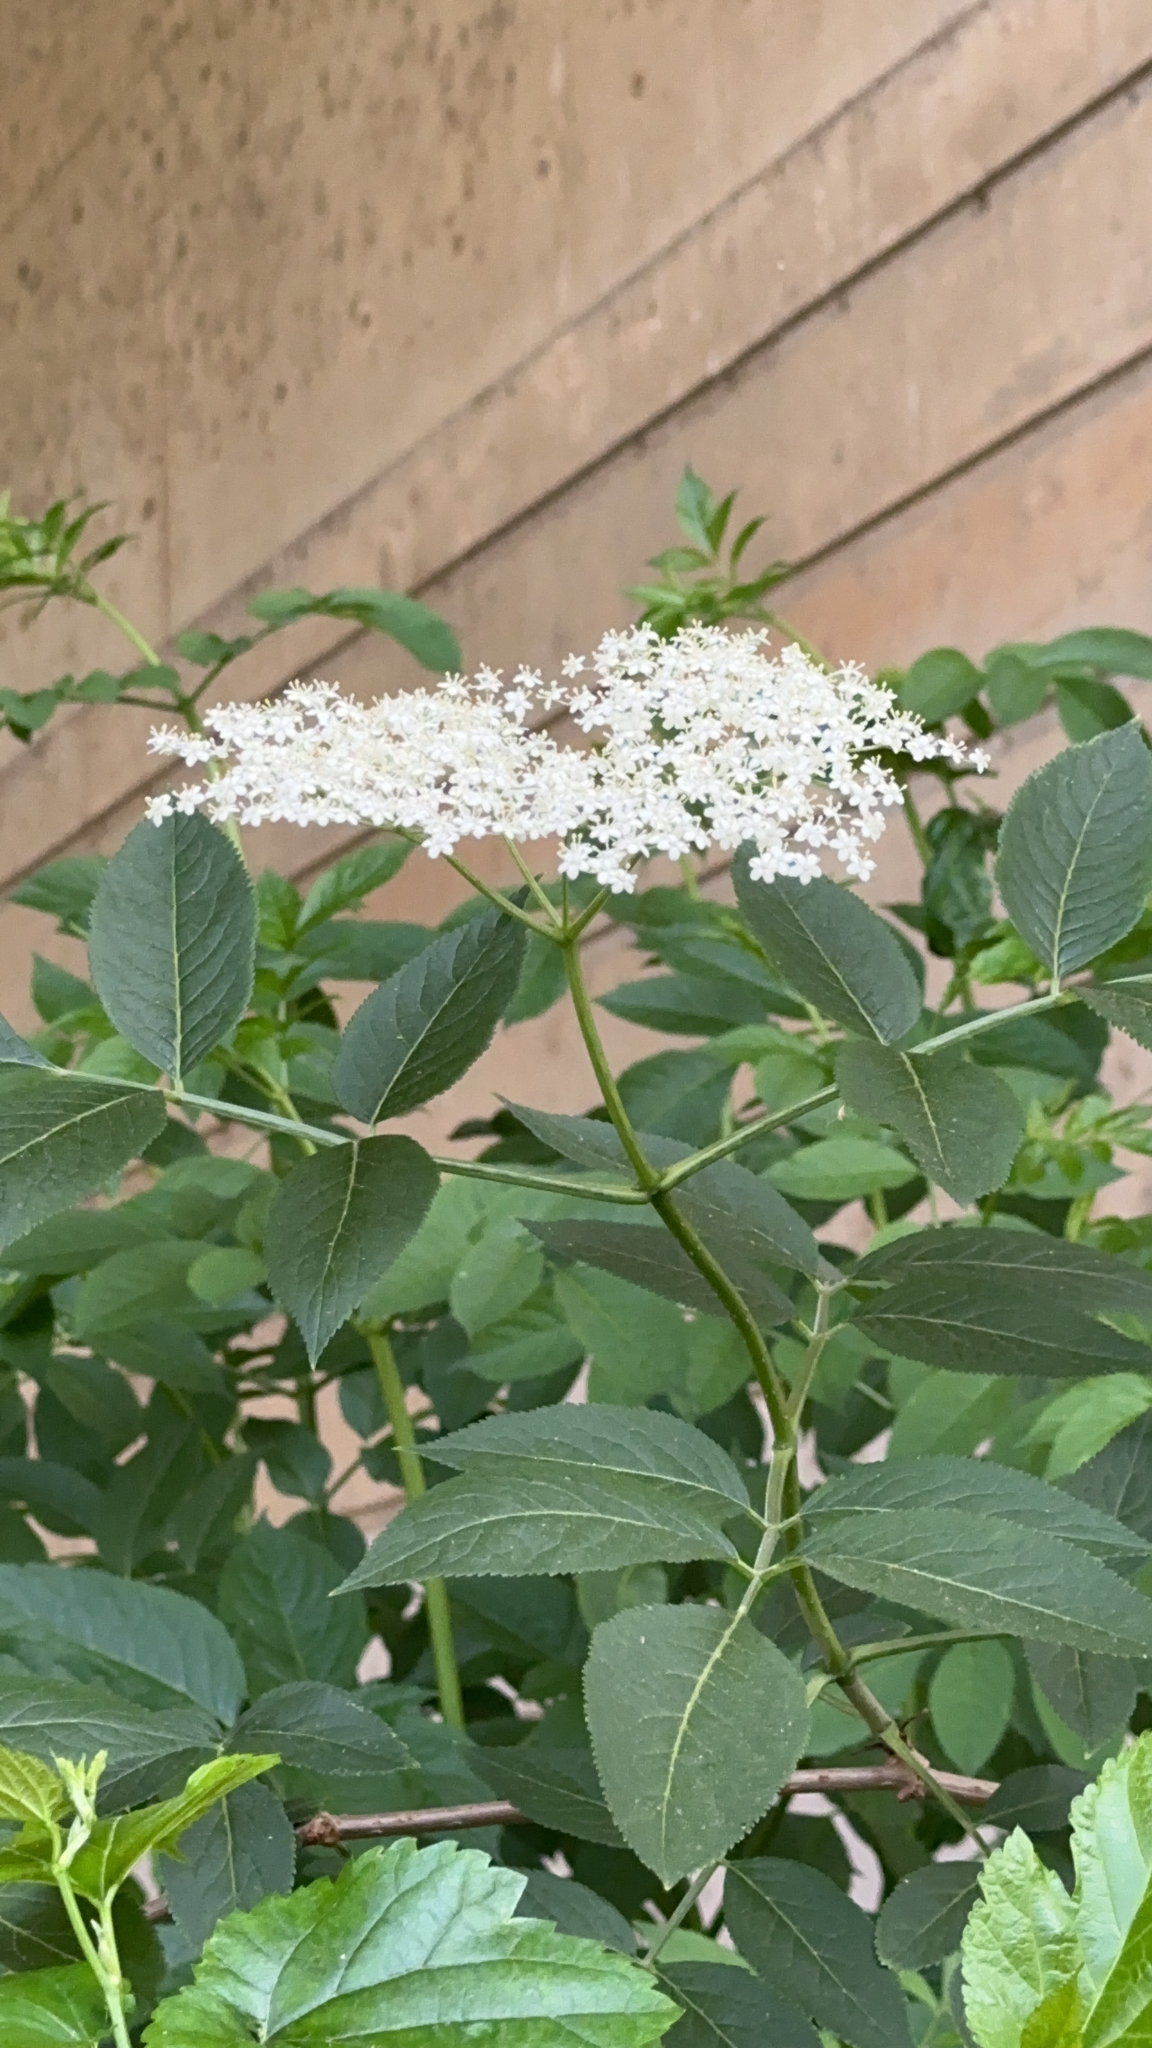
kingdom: Plantae
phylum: Tracheophyta
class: Magnoliopsida
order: Dipsacales
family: Viburnaceae
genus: Sambucus
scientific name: Sambucus nigra
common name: Elder
